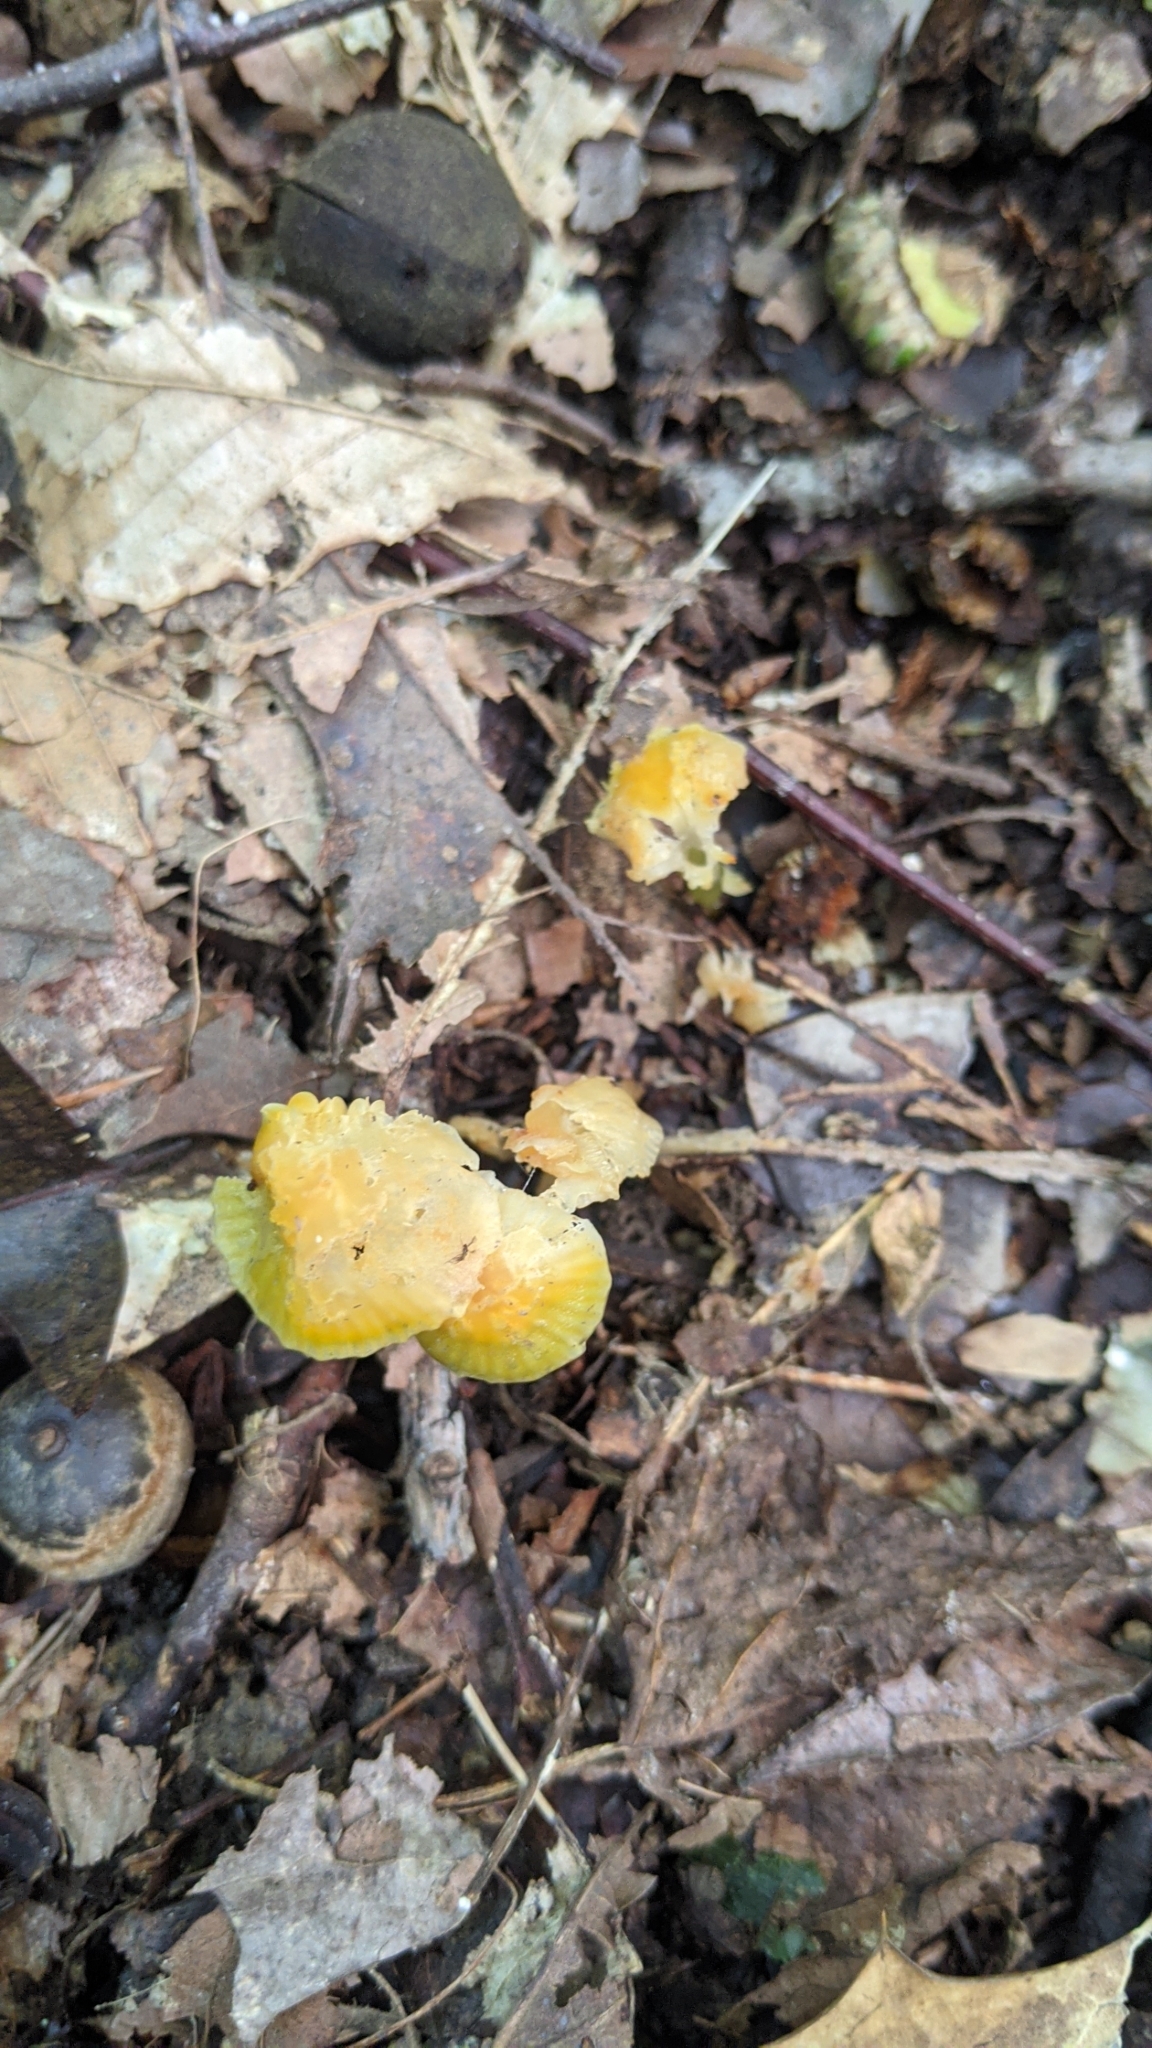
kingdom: Fungi
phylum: Basidiomycota
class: Agaricomycetes
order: Agaricales
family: Hygrophoraceae
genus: Gliophorus
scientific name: Gliophorus psittacinus
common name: Parrot wax-cap
